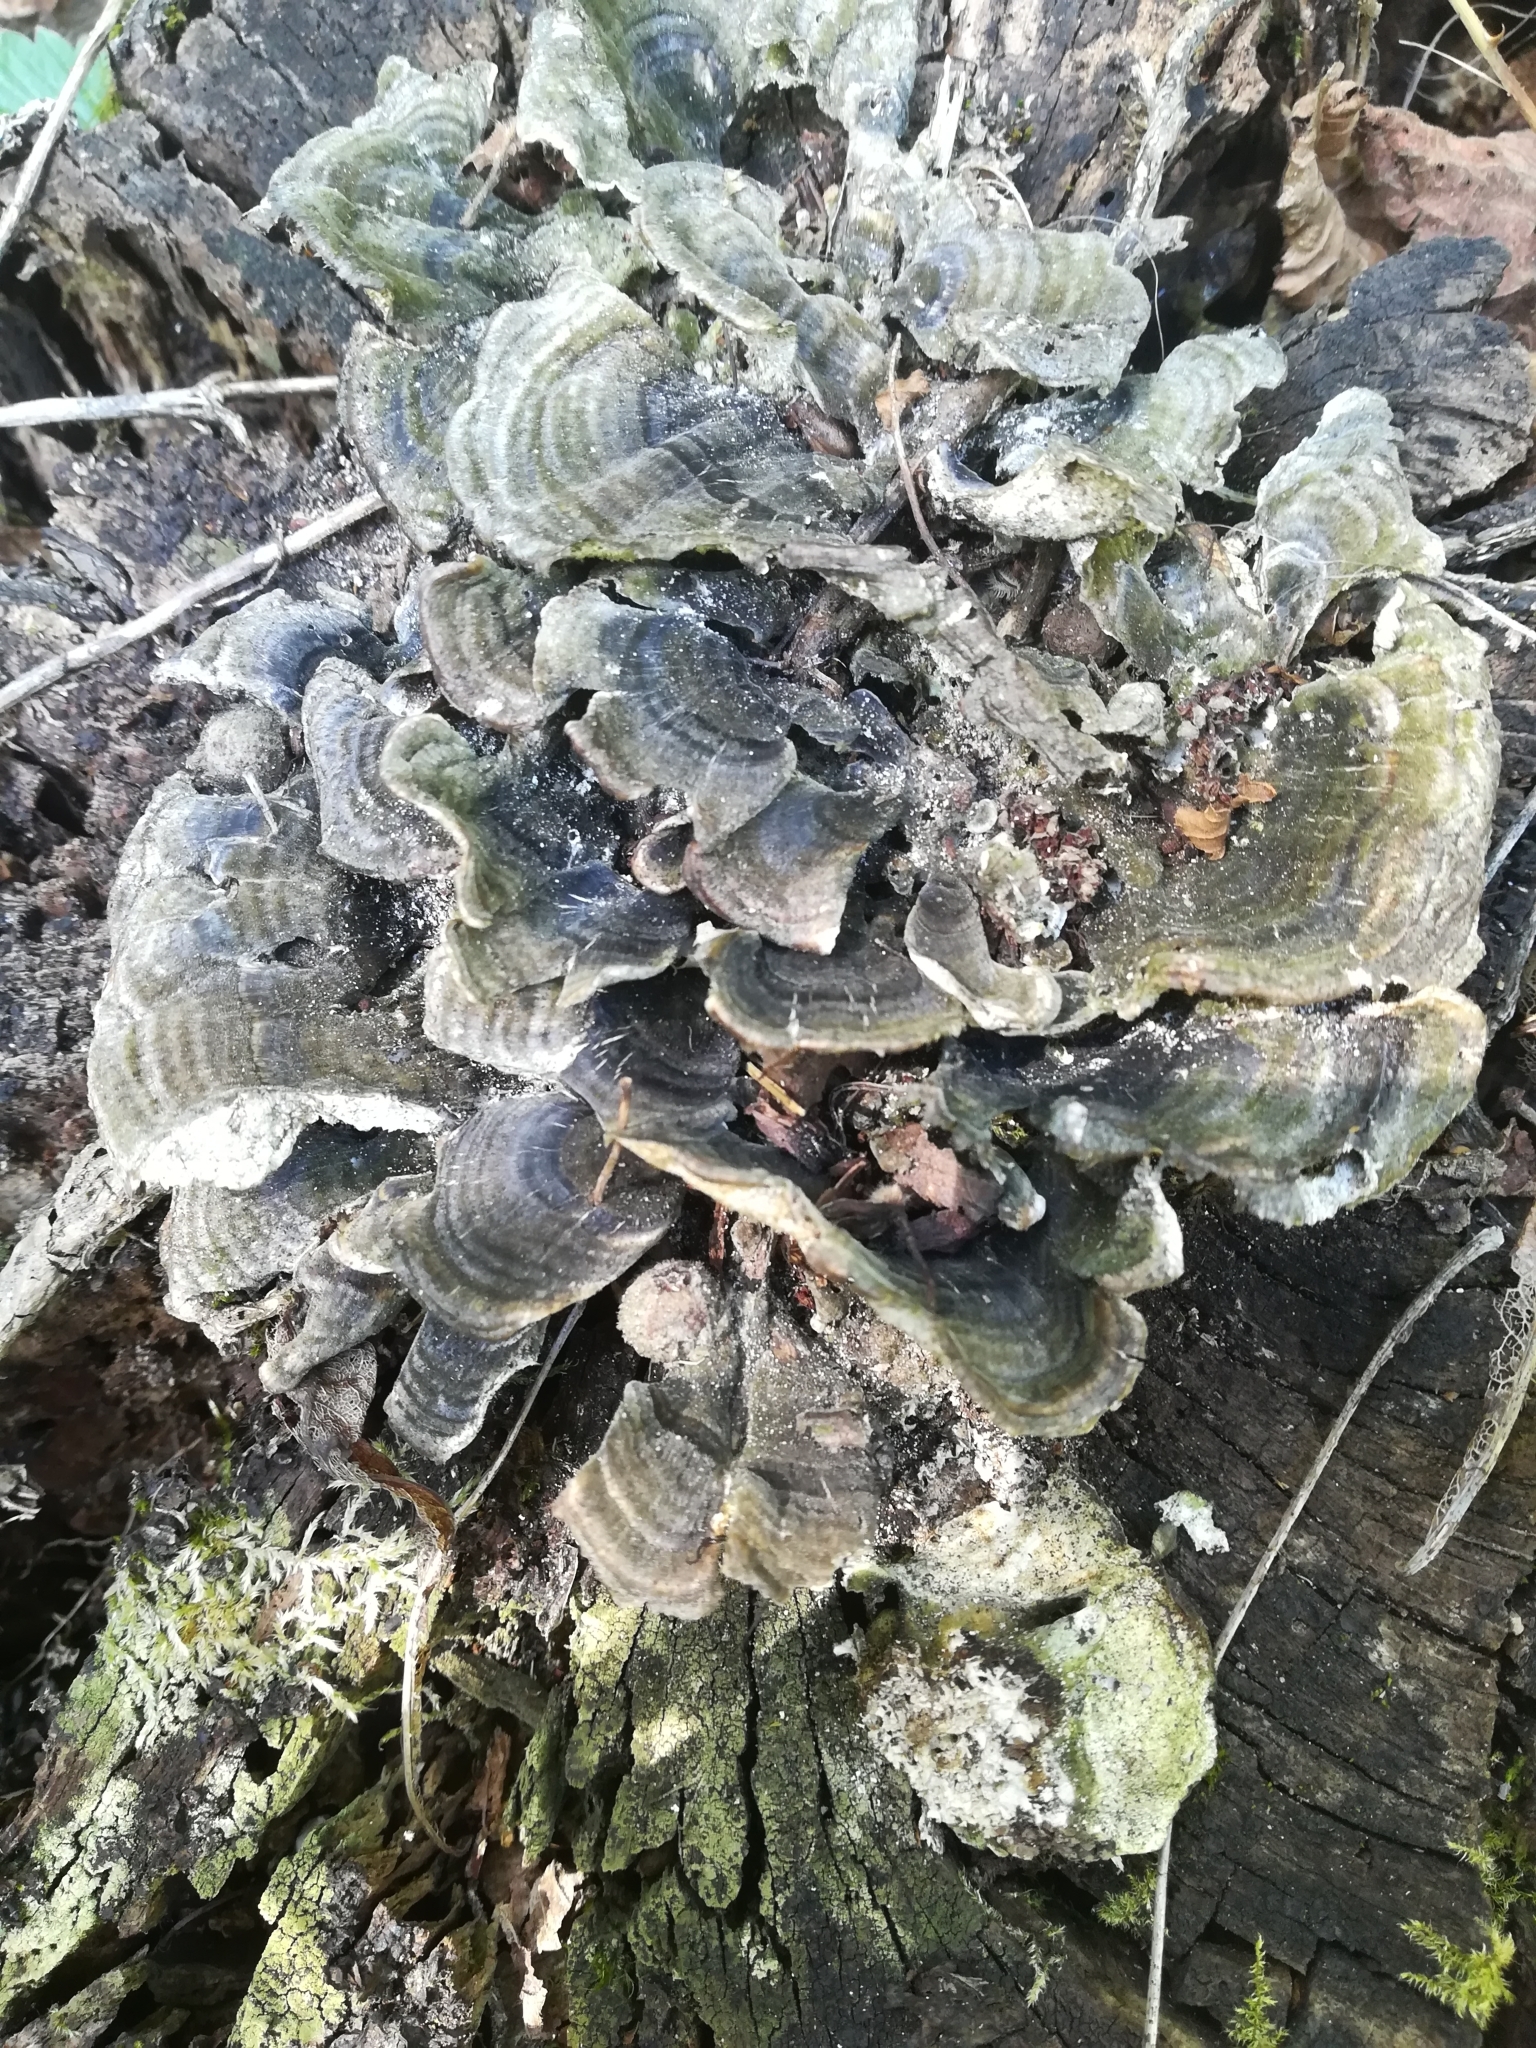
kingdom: Fungi
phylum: Basidiomycota
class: Agaricomycetes
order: Polyporales
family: Polyporaceae
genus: Trametes
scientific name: Trametes versicolor
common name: Turkeytail
